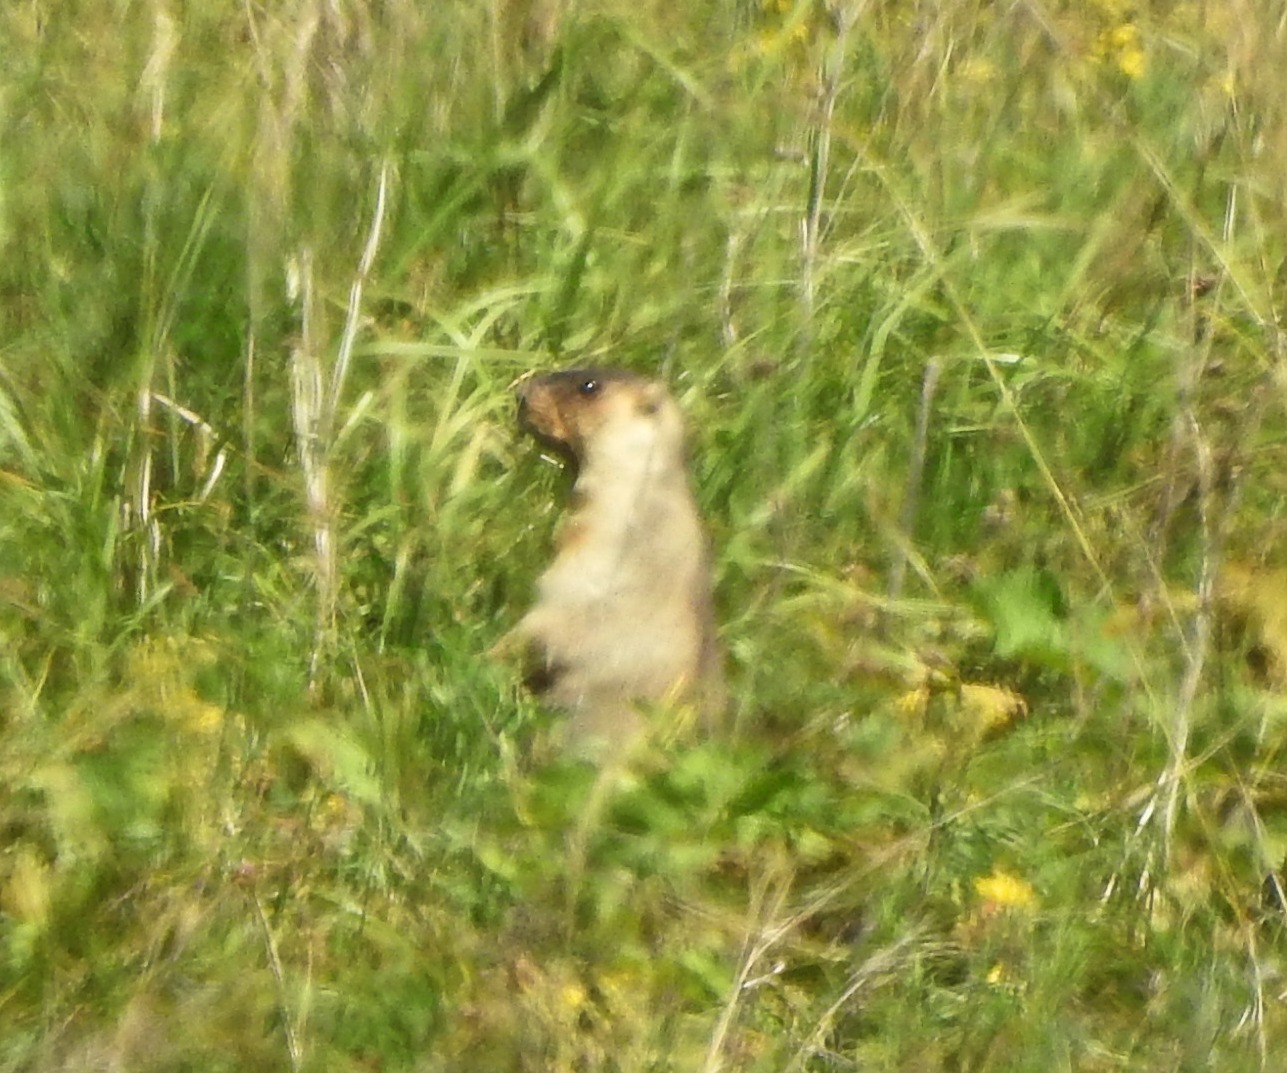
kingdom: Animalia
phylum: Chordata
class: Mammalia
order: Rodentia
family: Sciuridae
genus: Marmota
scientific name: Marmota sibirica
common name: Tarbagan marmot
